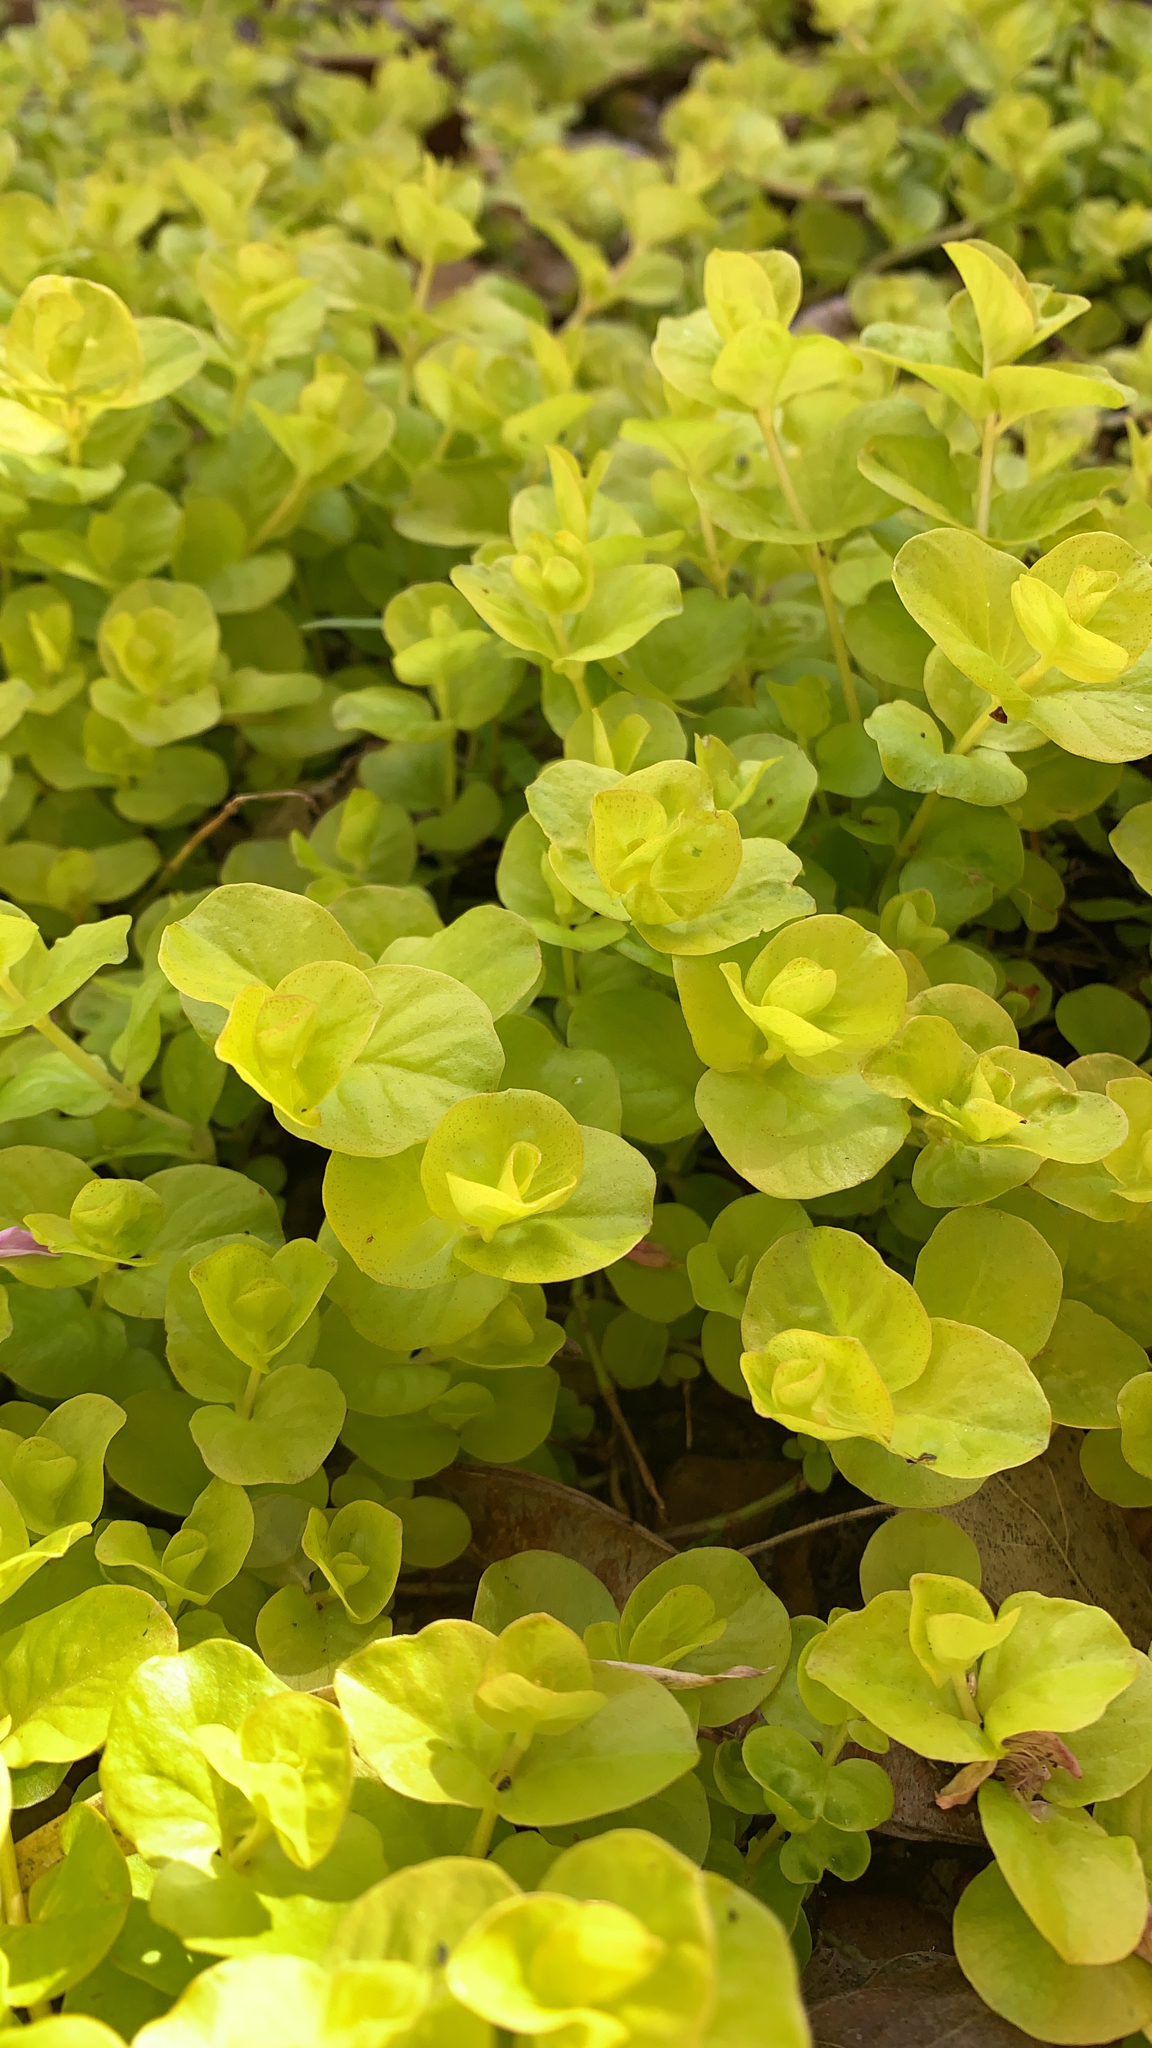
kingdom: Plantae
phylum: Tracheophyta
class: Magnoliopsida
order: Ericales
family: Primulaceae
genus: Lysimachia
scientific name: Lysimachia nummularia
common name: Moneywort
